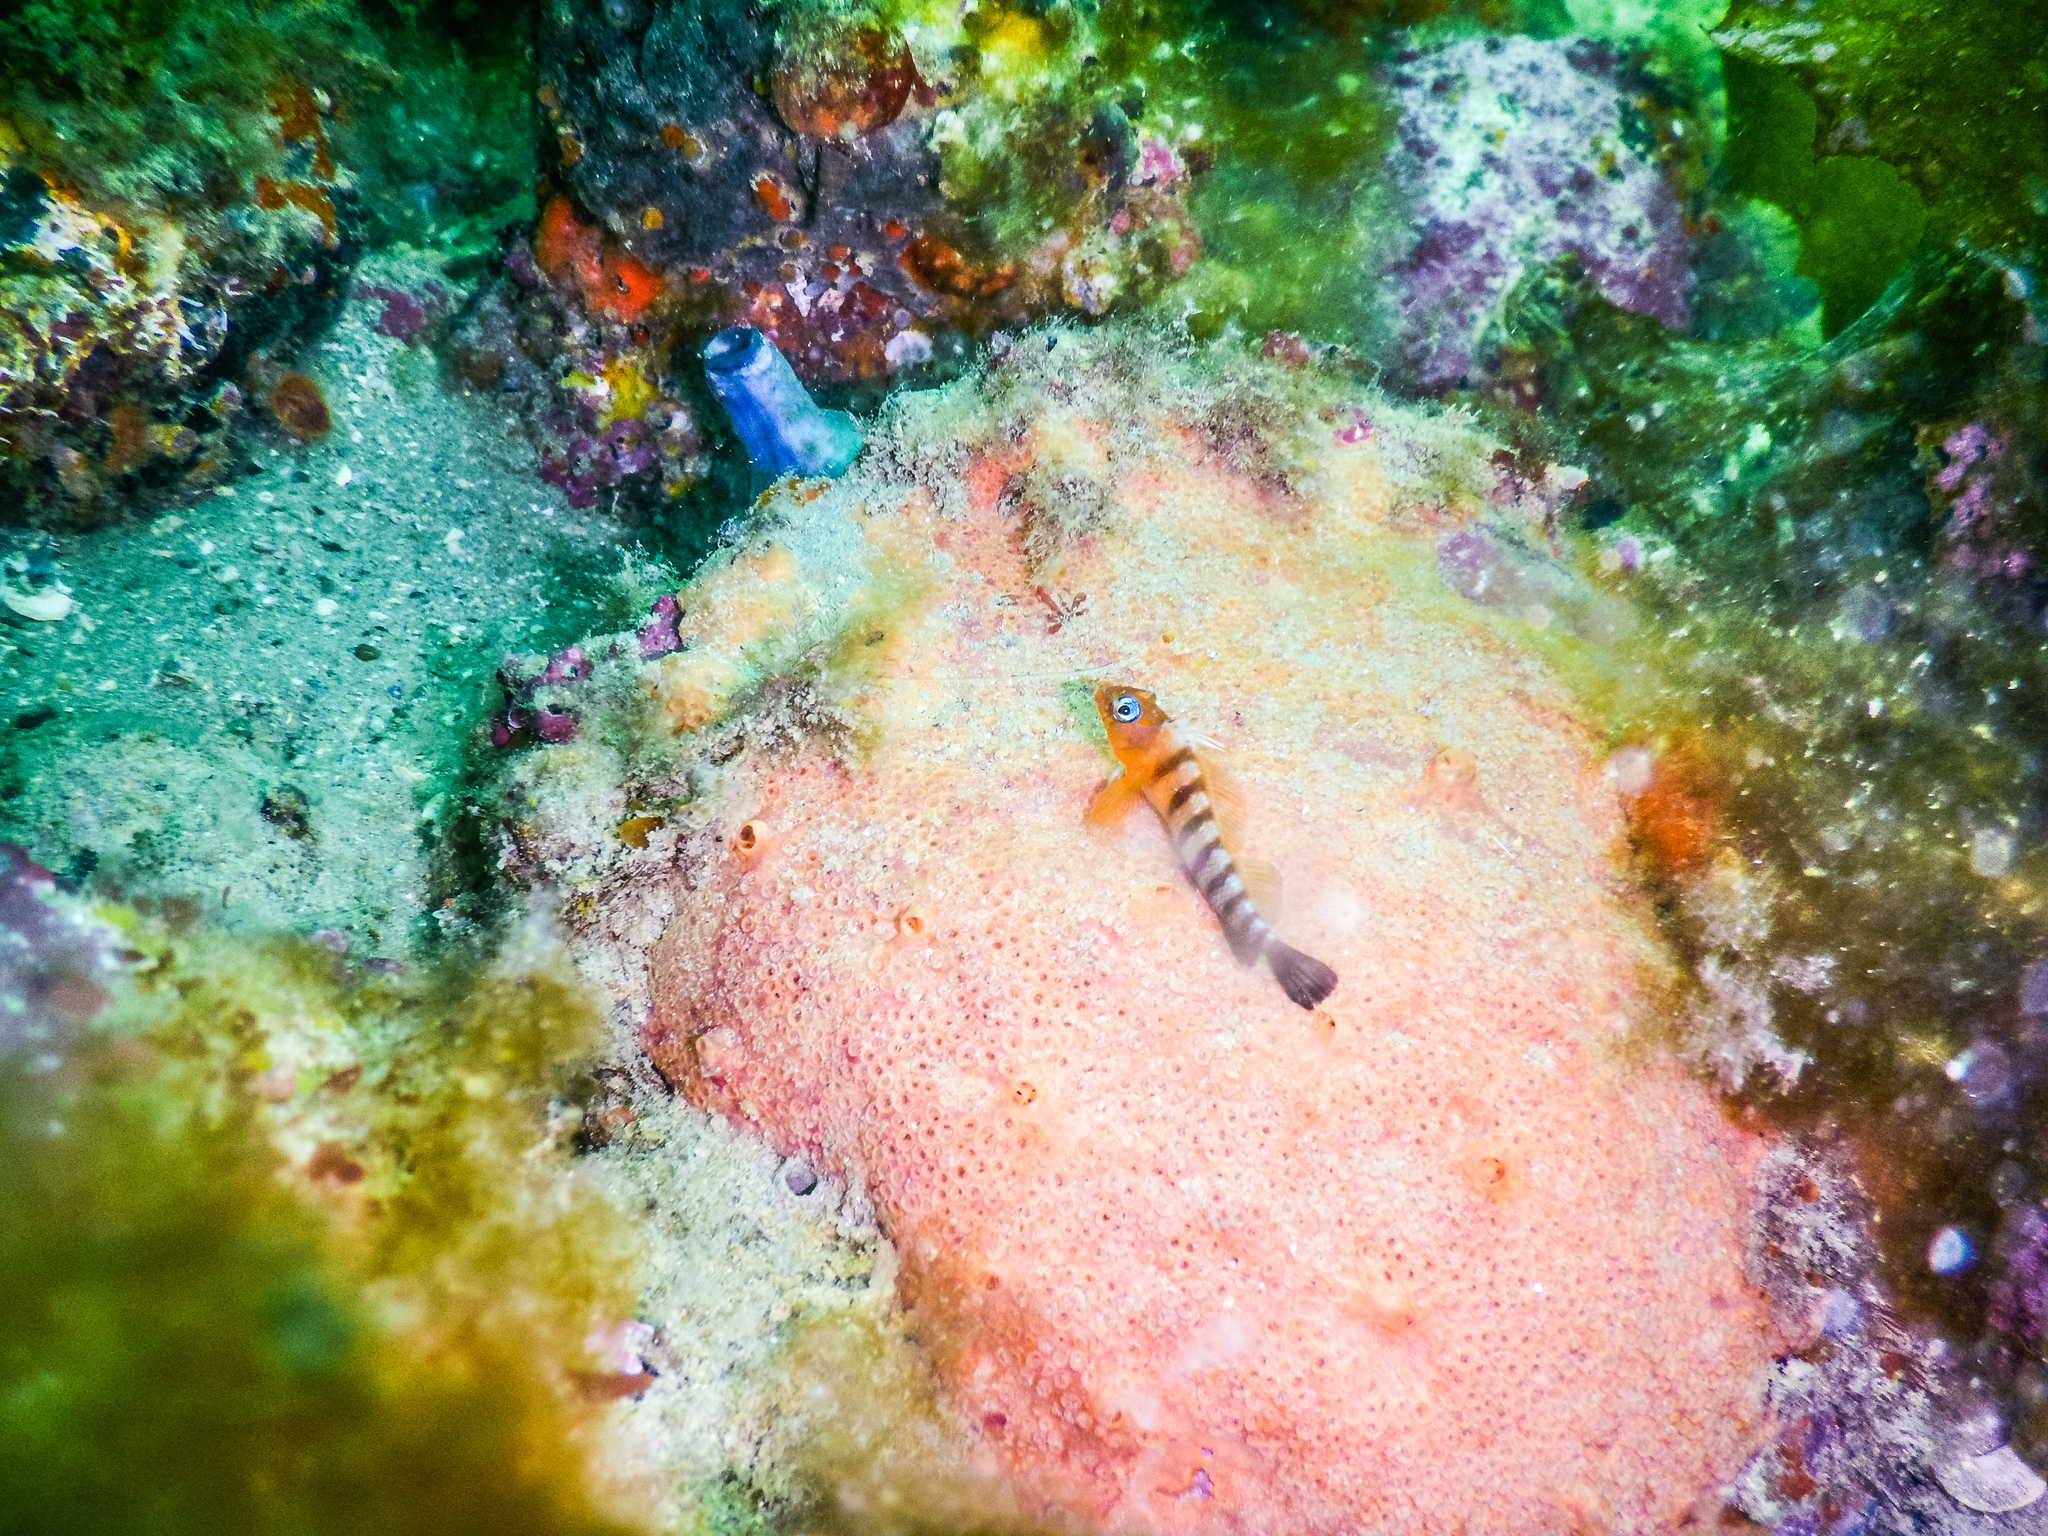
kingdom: Animalia
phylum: Chordata
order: Perciformes
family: Tripterygiidae
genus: Notoclinops
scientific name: Notoclinops segmentatus
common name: Blue-eyed triplefin
